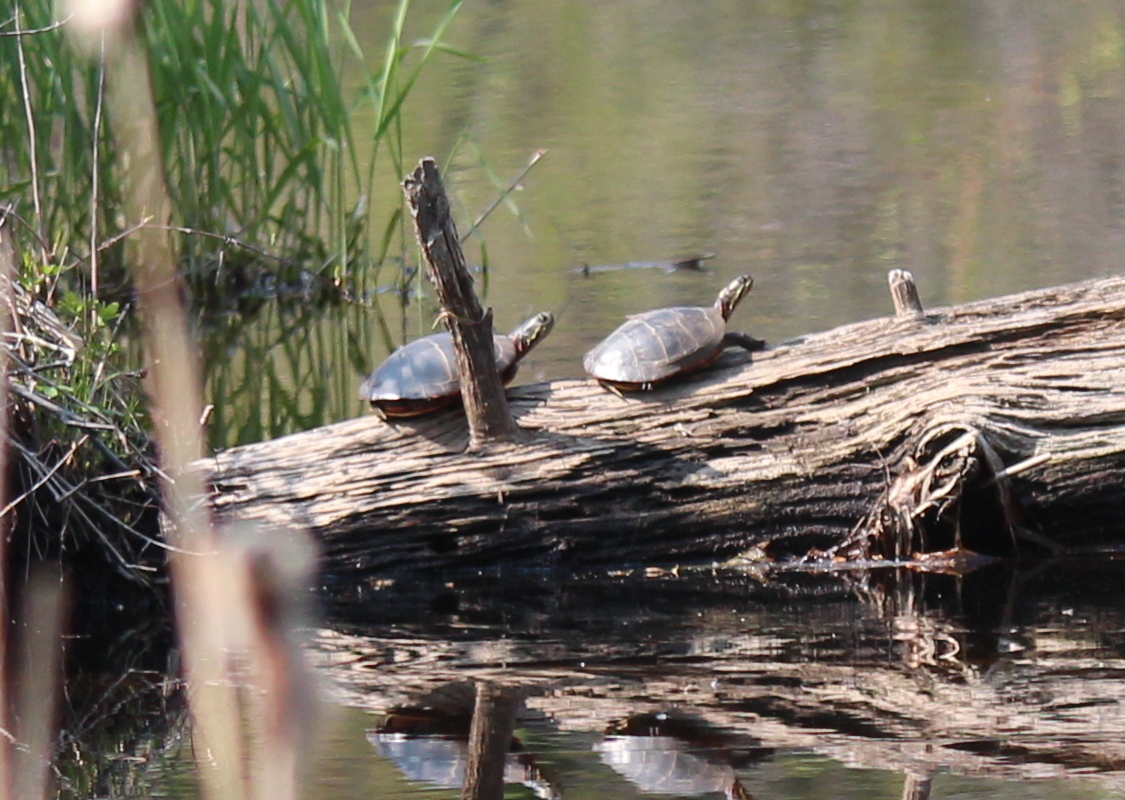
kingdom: Animalia
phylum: Chordata
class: Testudines
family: Emydidae
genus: Chrysemys
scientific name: Chrysemys picta
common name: Painted turtle
